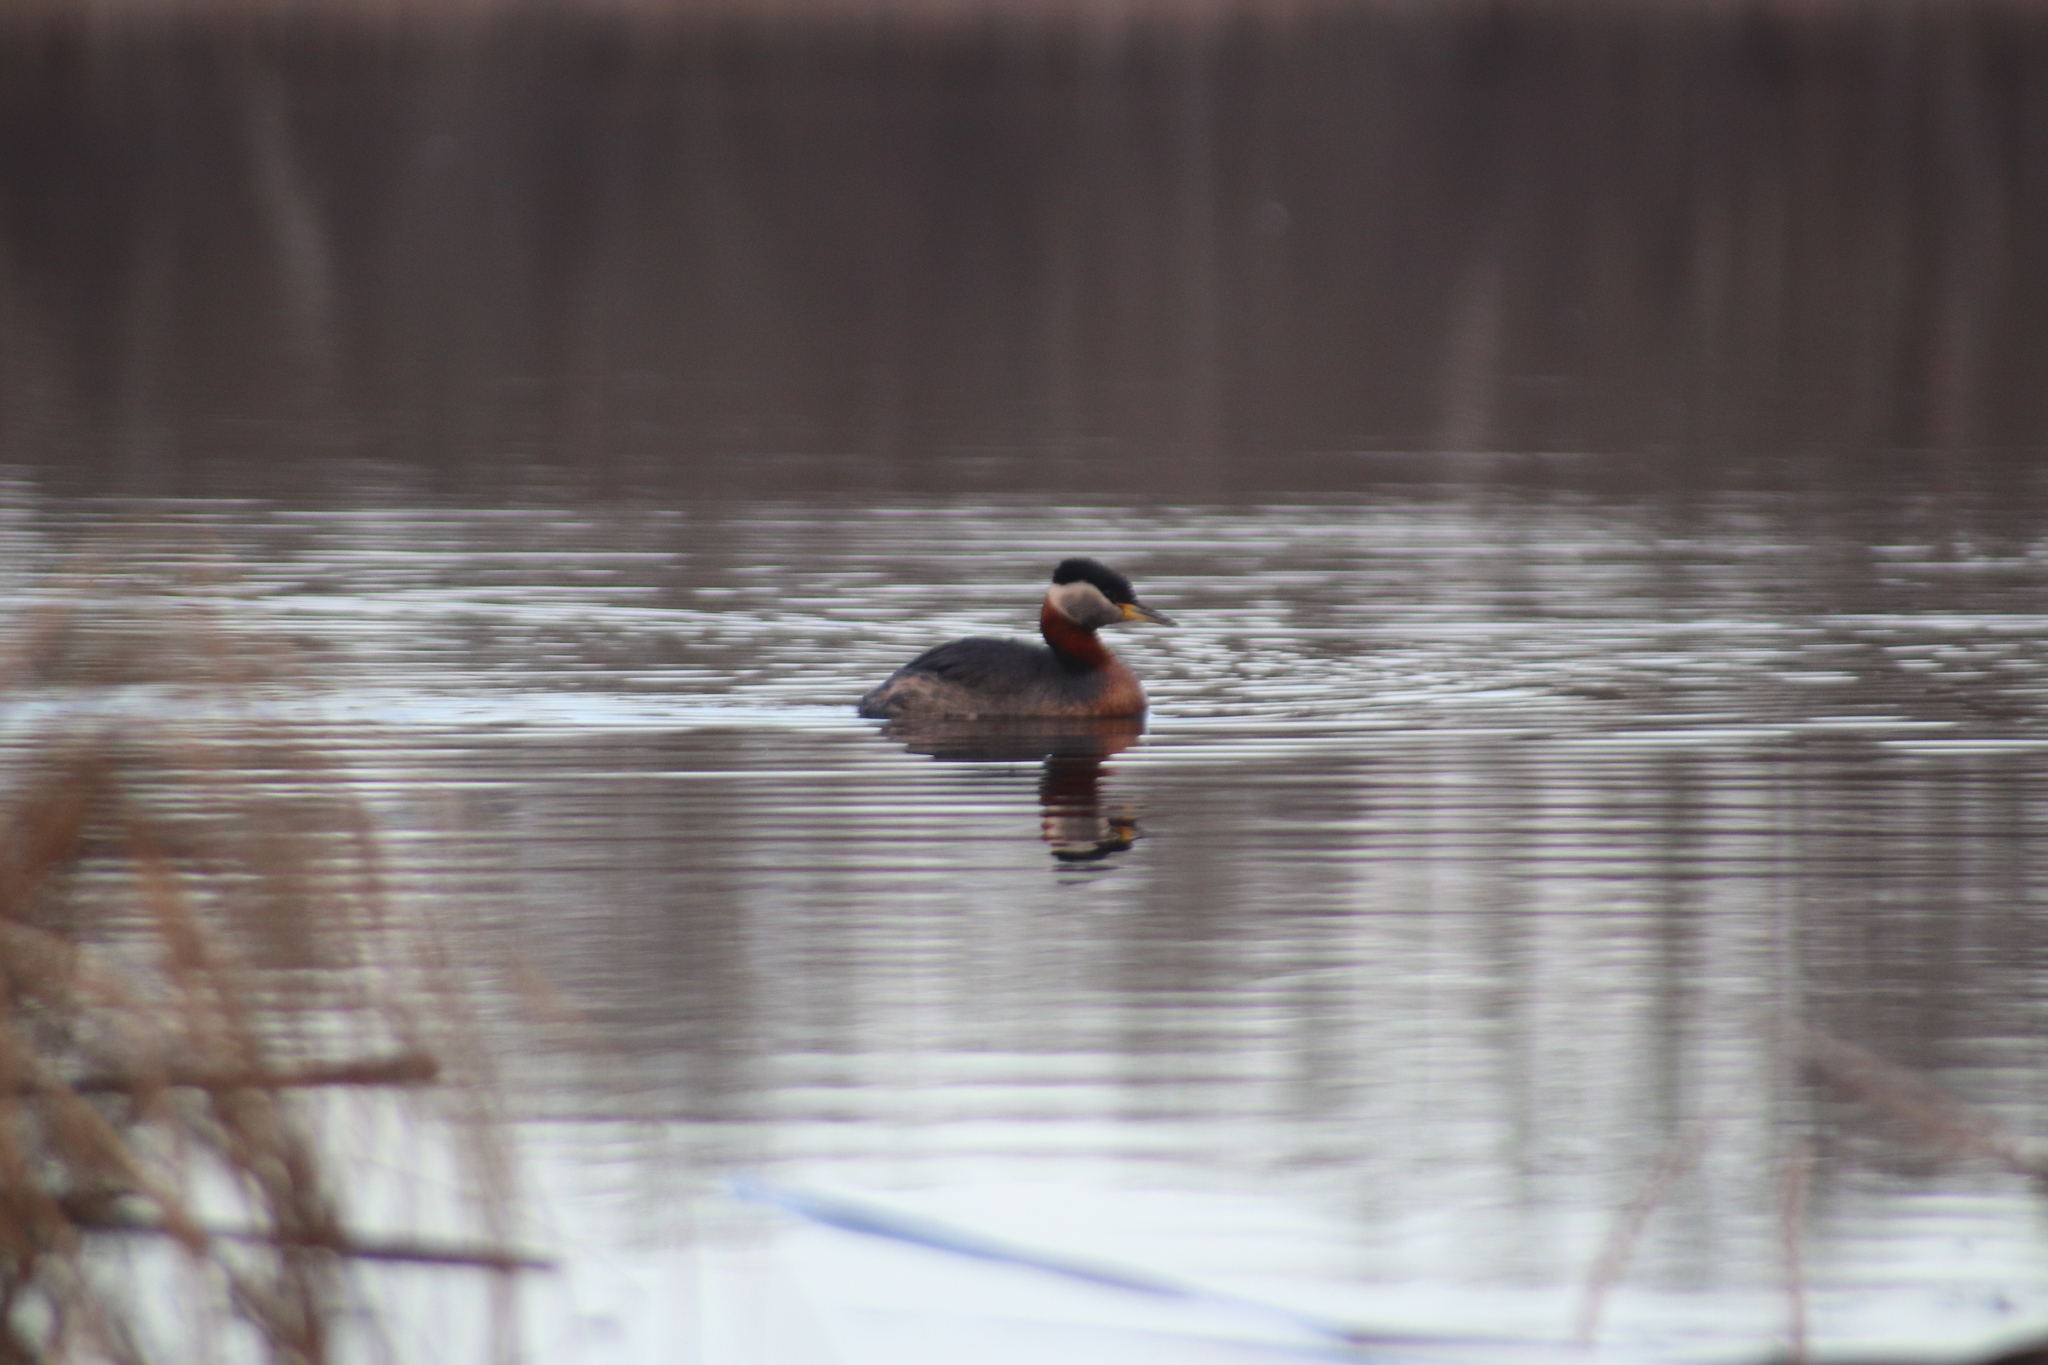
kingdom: Animalia
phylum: Chordata
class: Aves
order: Podicipediformes
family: Podicipedidae
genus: Podiceps
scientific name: Podiceps grisegena
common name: Red-necked grebe
